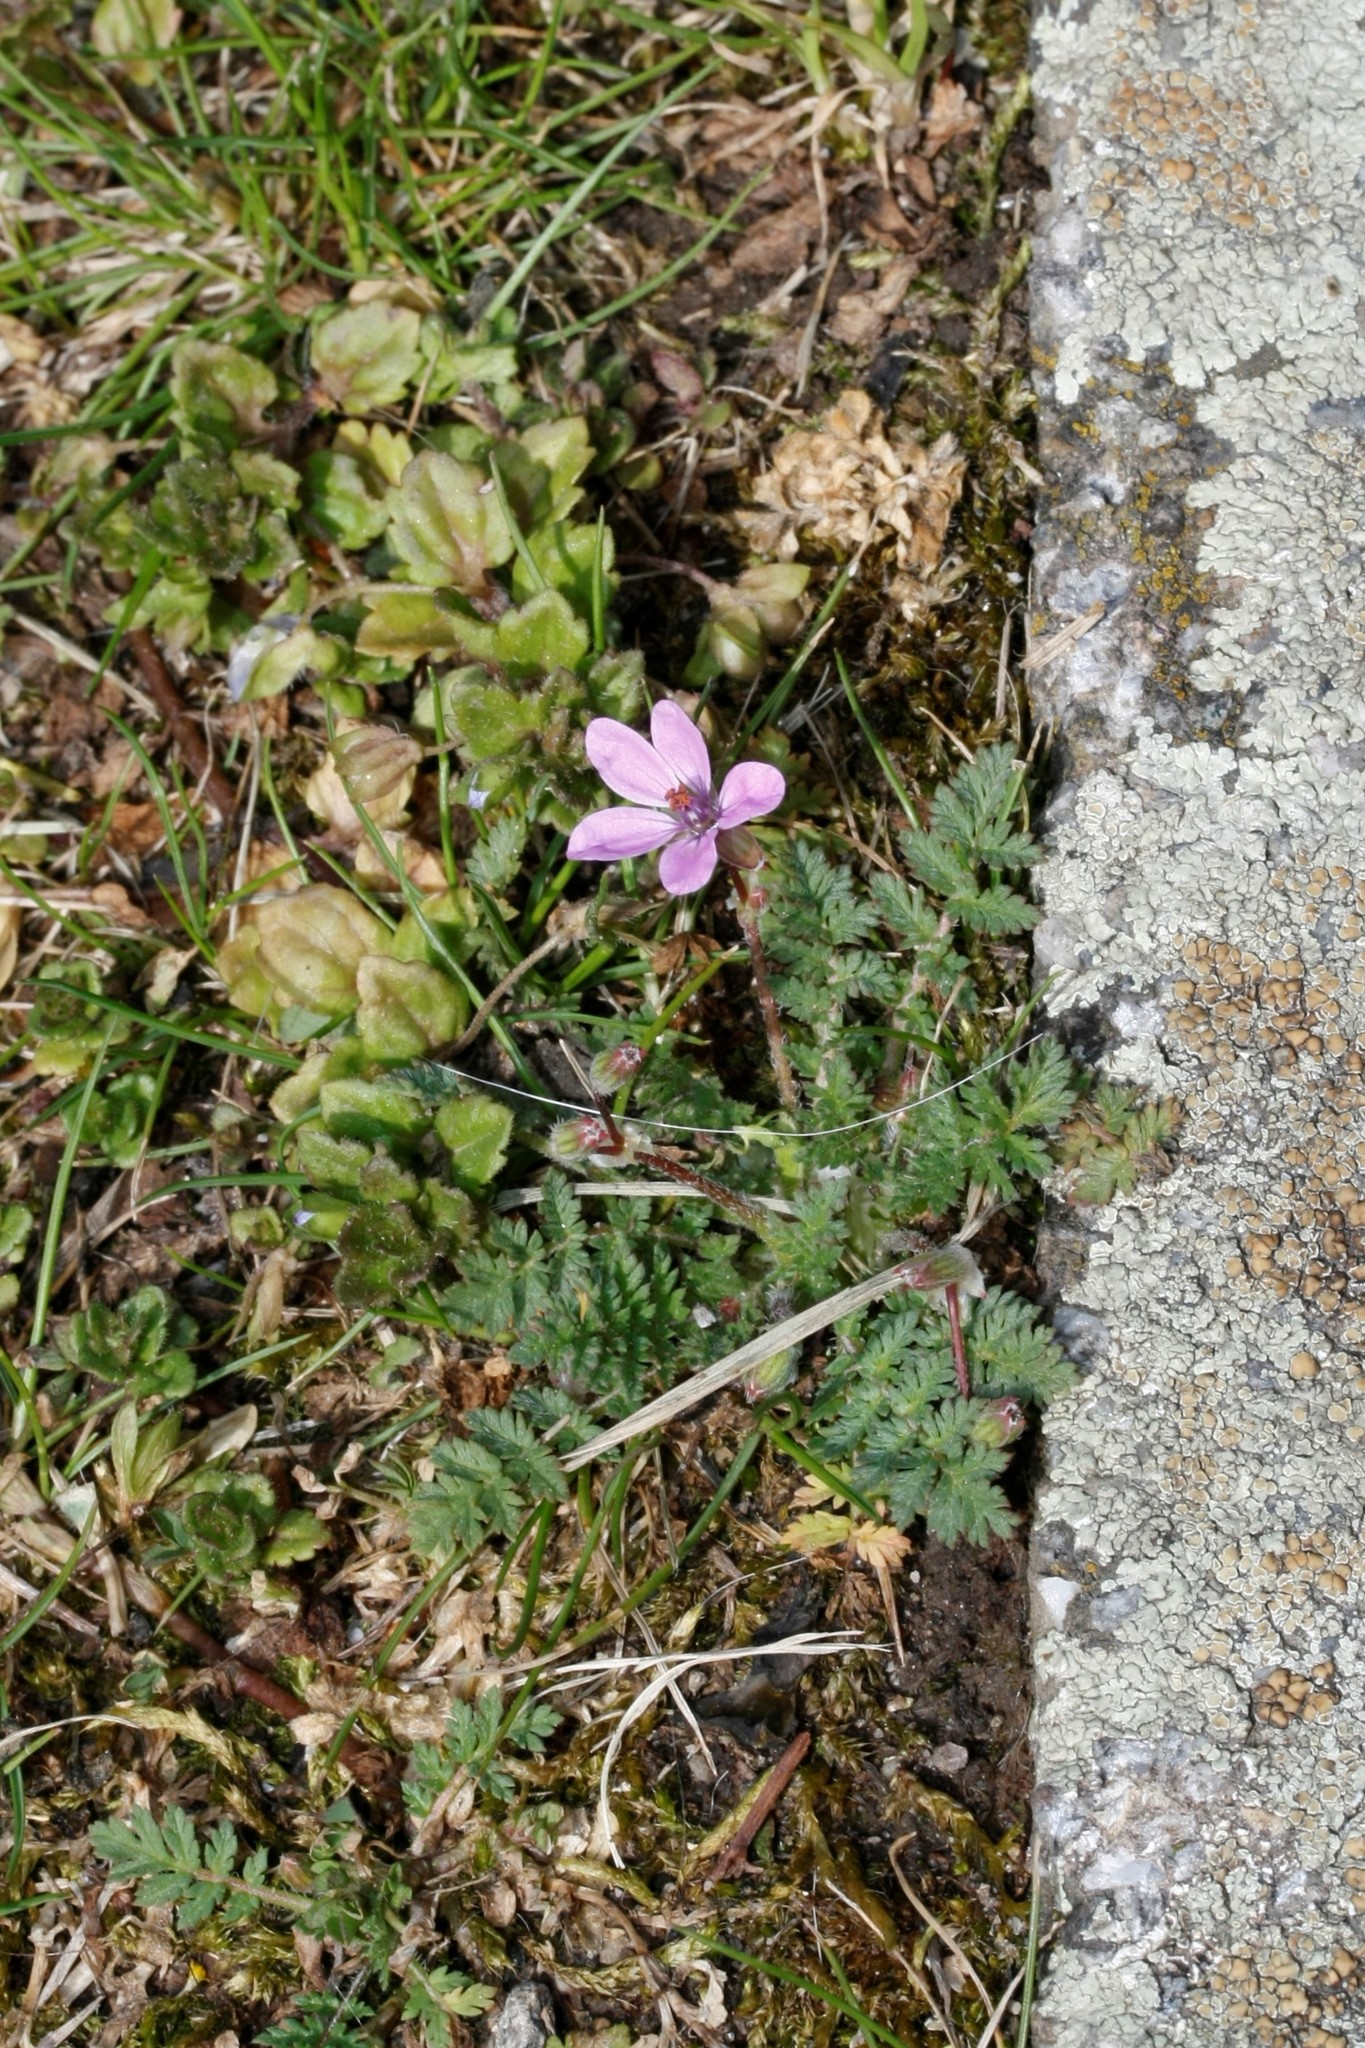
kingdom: Plantae
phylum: Tracheophyta
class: Magnoliopsida
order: Geraniales
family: Geraniaceae
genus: Erodium
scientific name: Erodium cicutarium
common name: Common stork's-bill
